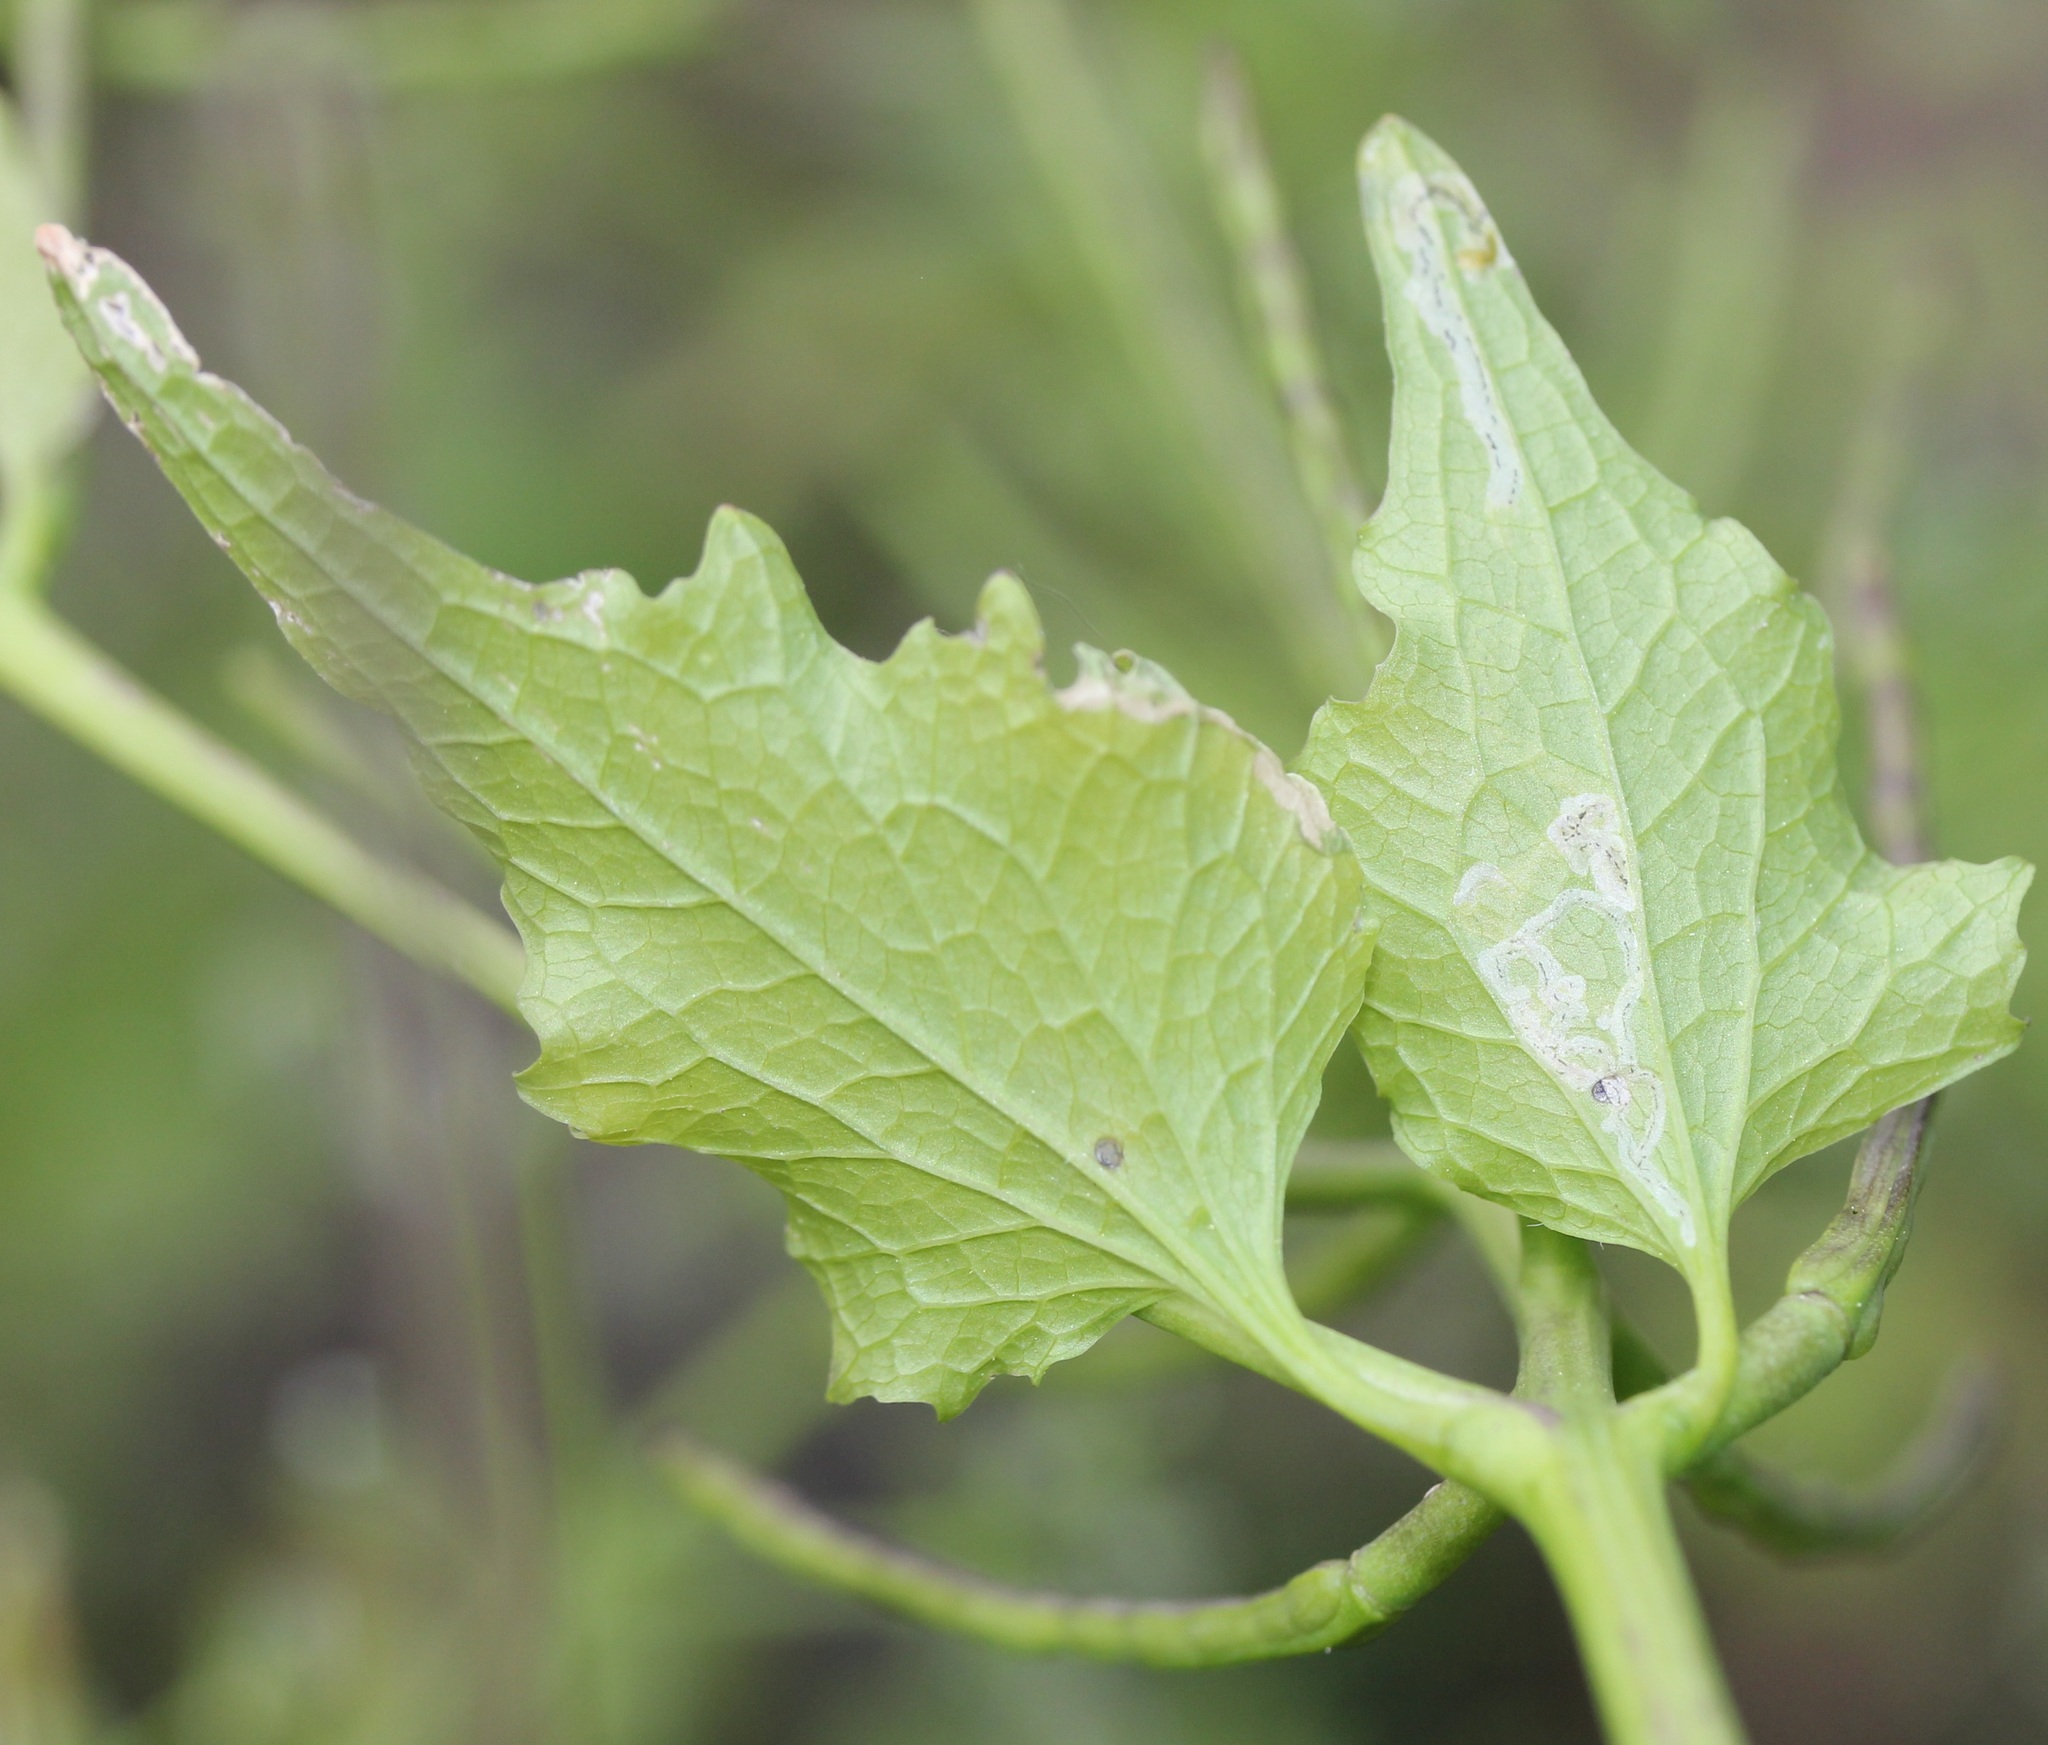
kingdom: Animalia
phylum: Arthropoda
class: Insecta
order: Diptera
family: Agromyzidae
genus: Liriomyza
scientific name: Liriomyza brassicae
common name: Serpentine leaf miner
